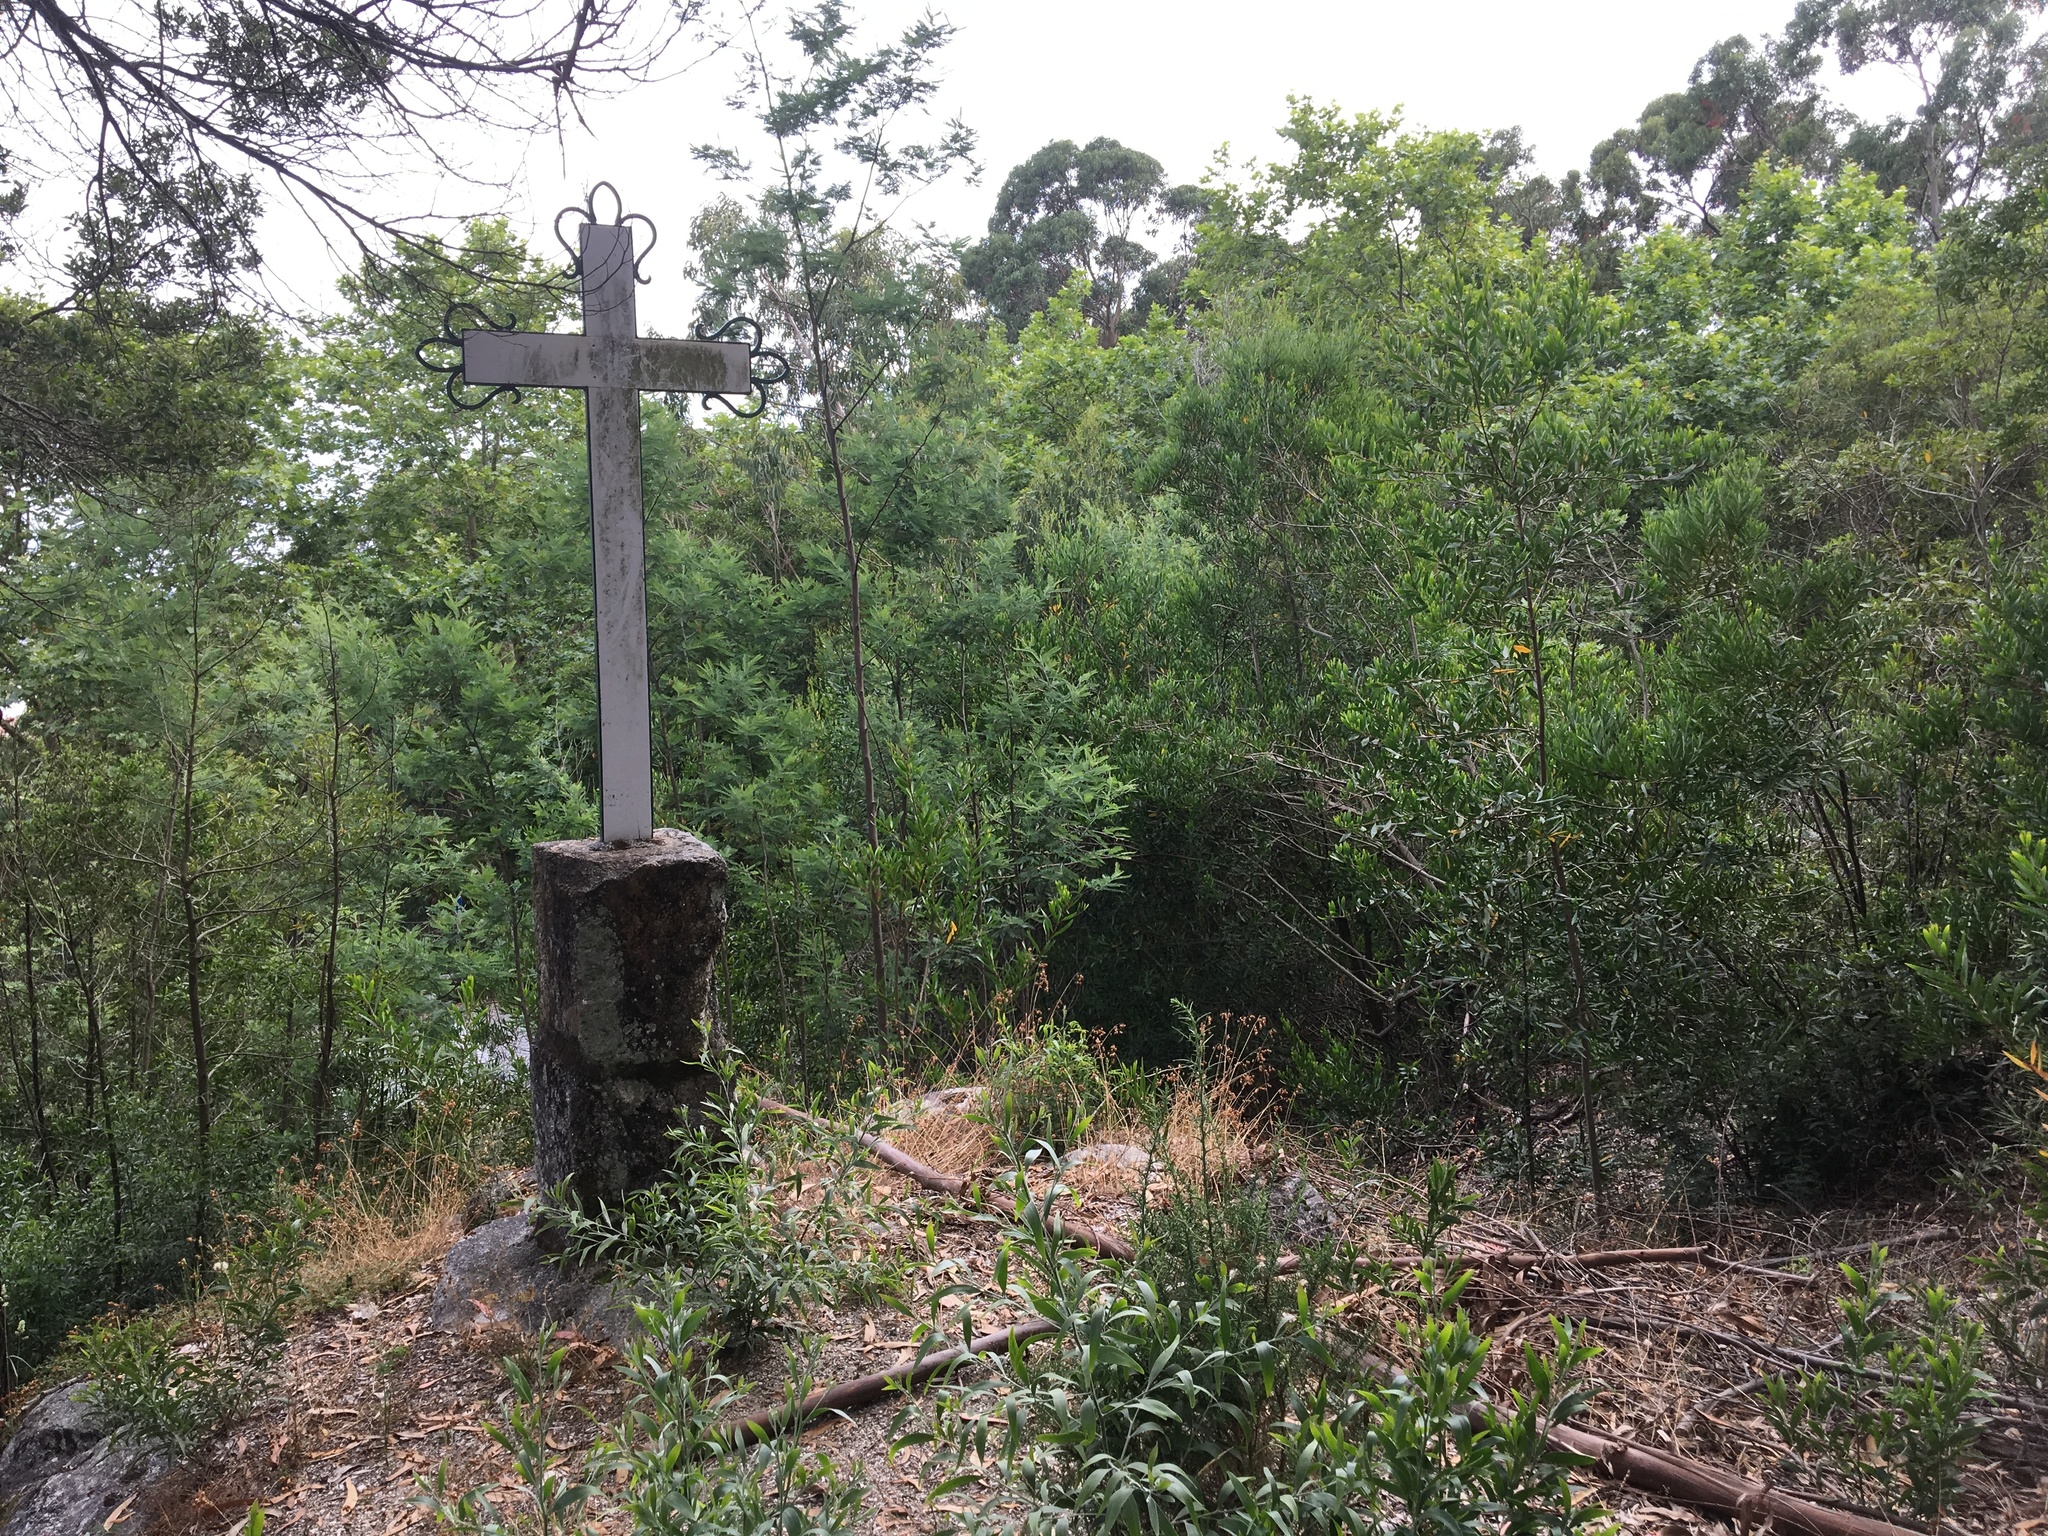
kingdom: Plantae
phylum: Tracheophyta
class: Magnoliopsida
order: Fabales
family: Fabaceae
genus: Acacia
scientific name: Acacia melanoxylon
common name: Blackwood
